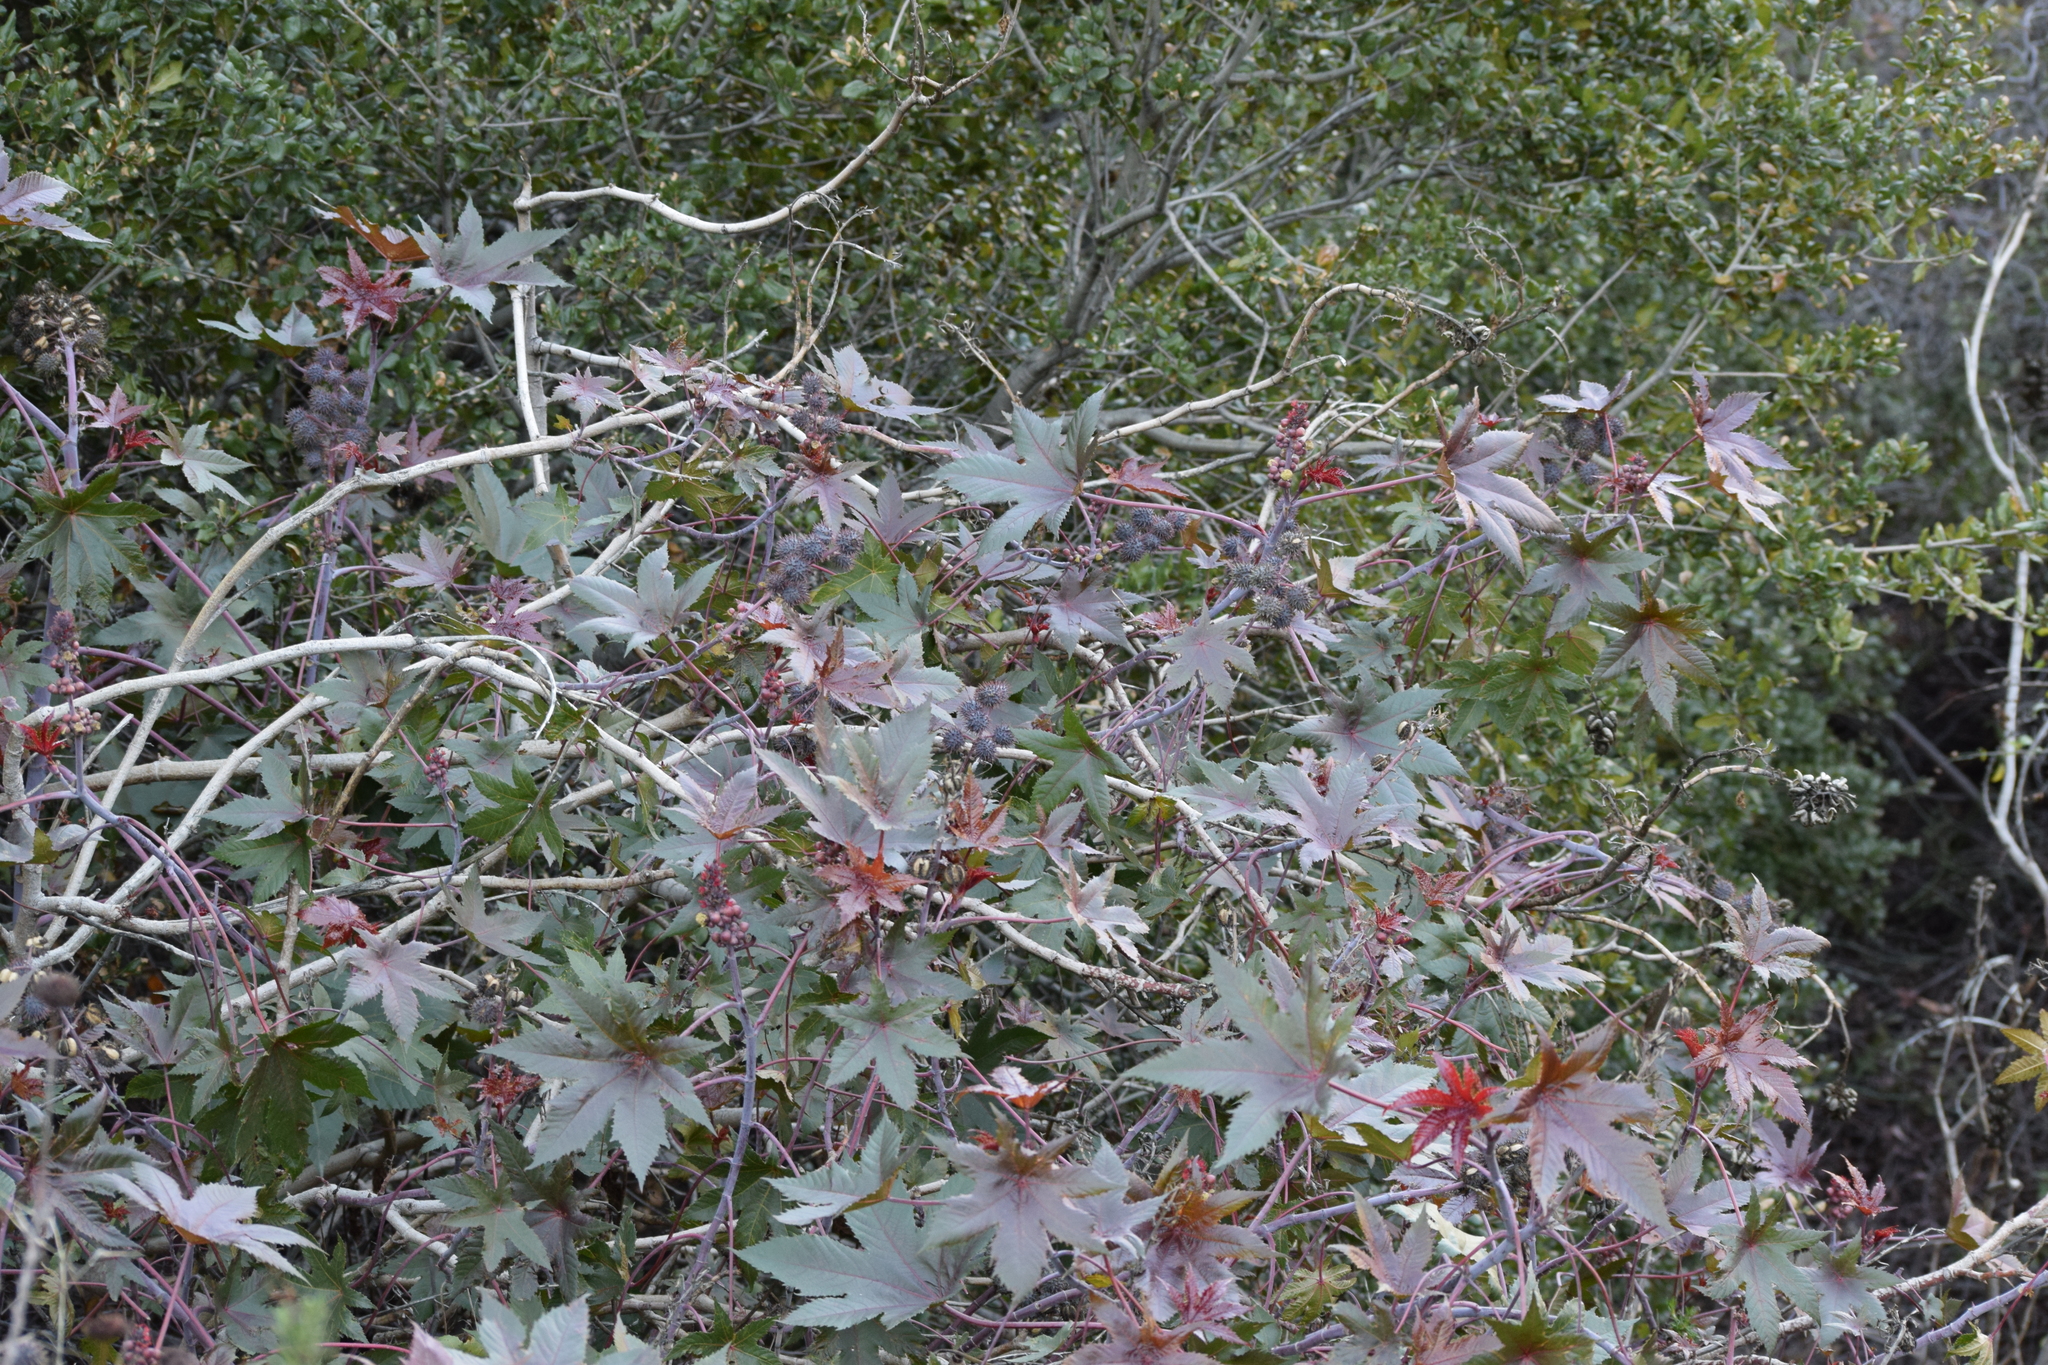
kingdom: Plantae
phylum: Tracheophyta
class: Magnoliopsida
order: Malpighiales
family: Euphorbiaceae
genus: Ricinus
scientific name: Ricinus communis
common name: Castor-oil-plant
